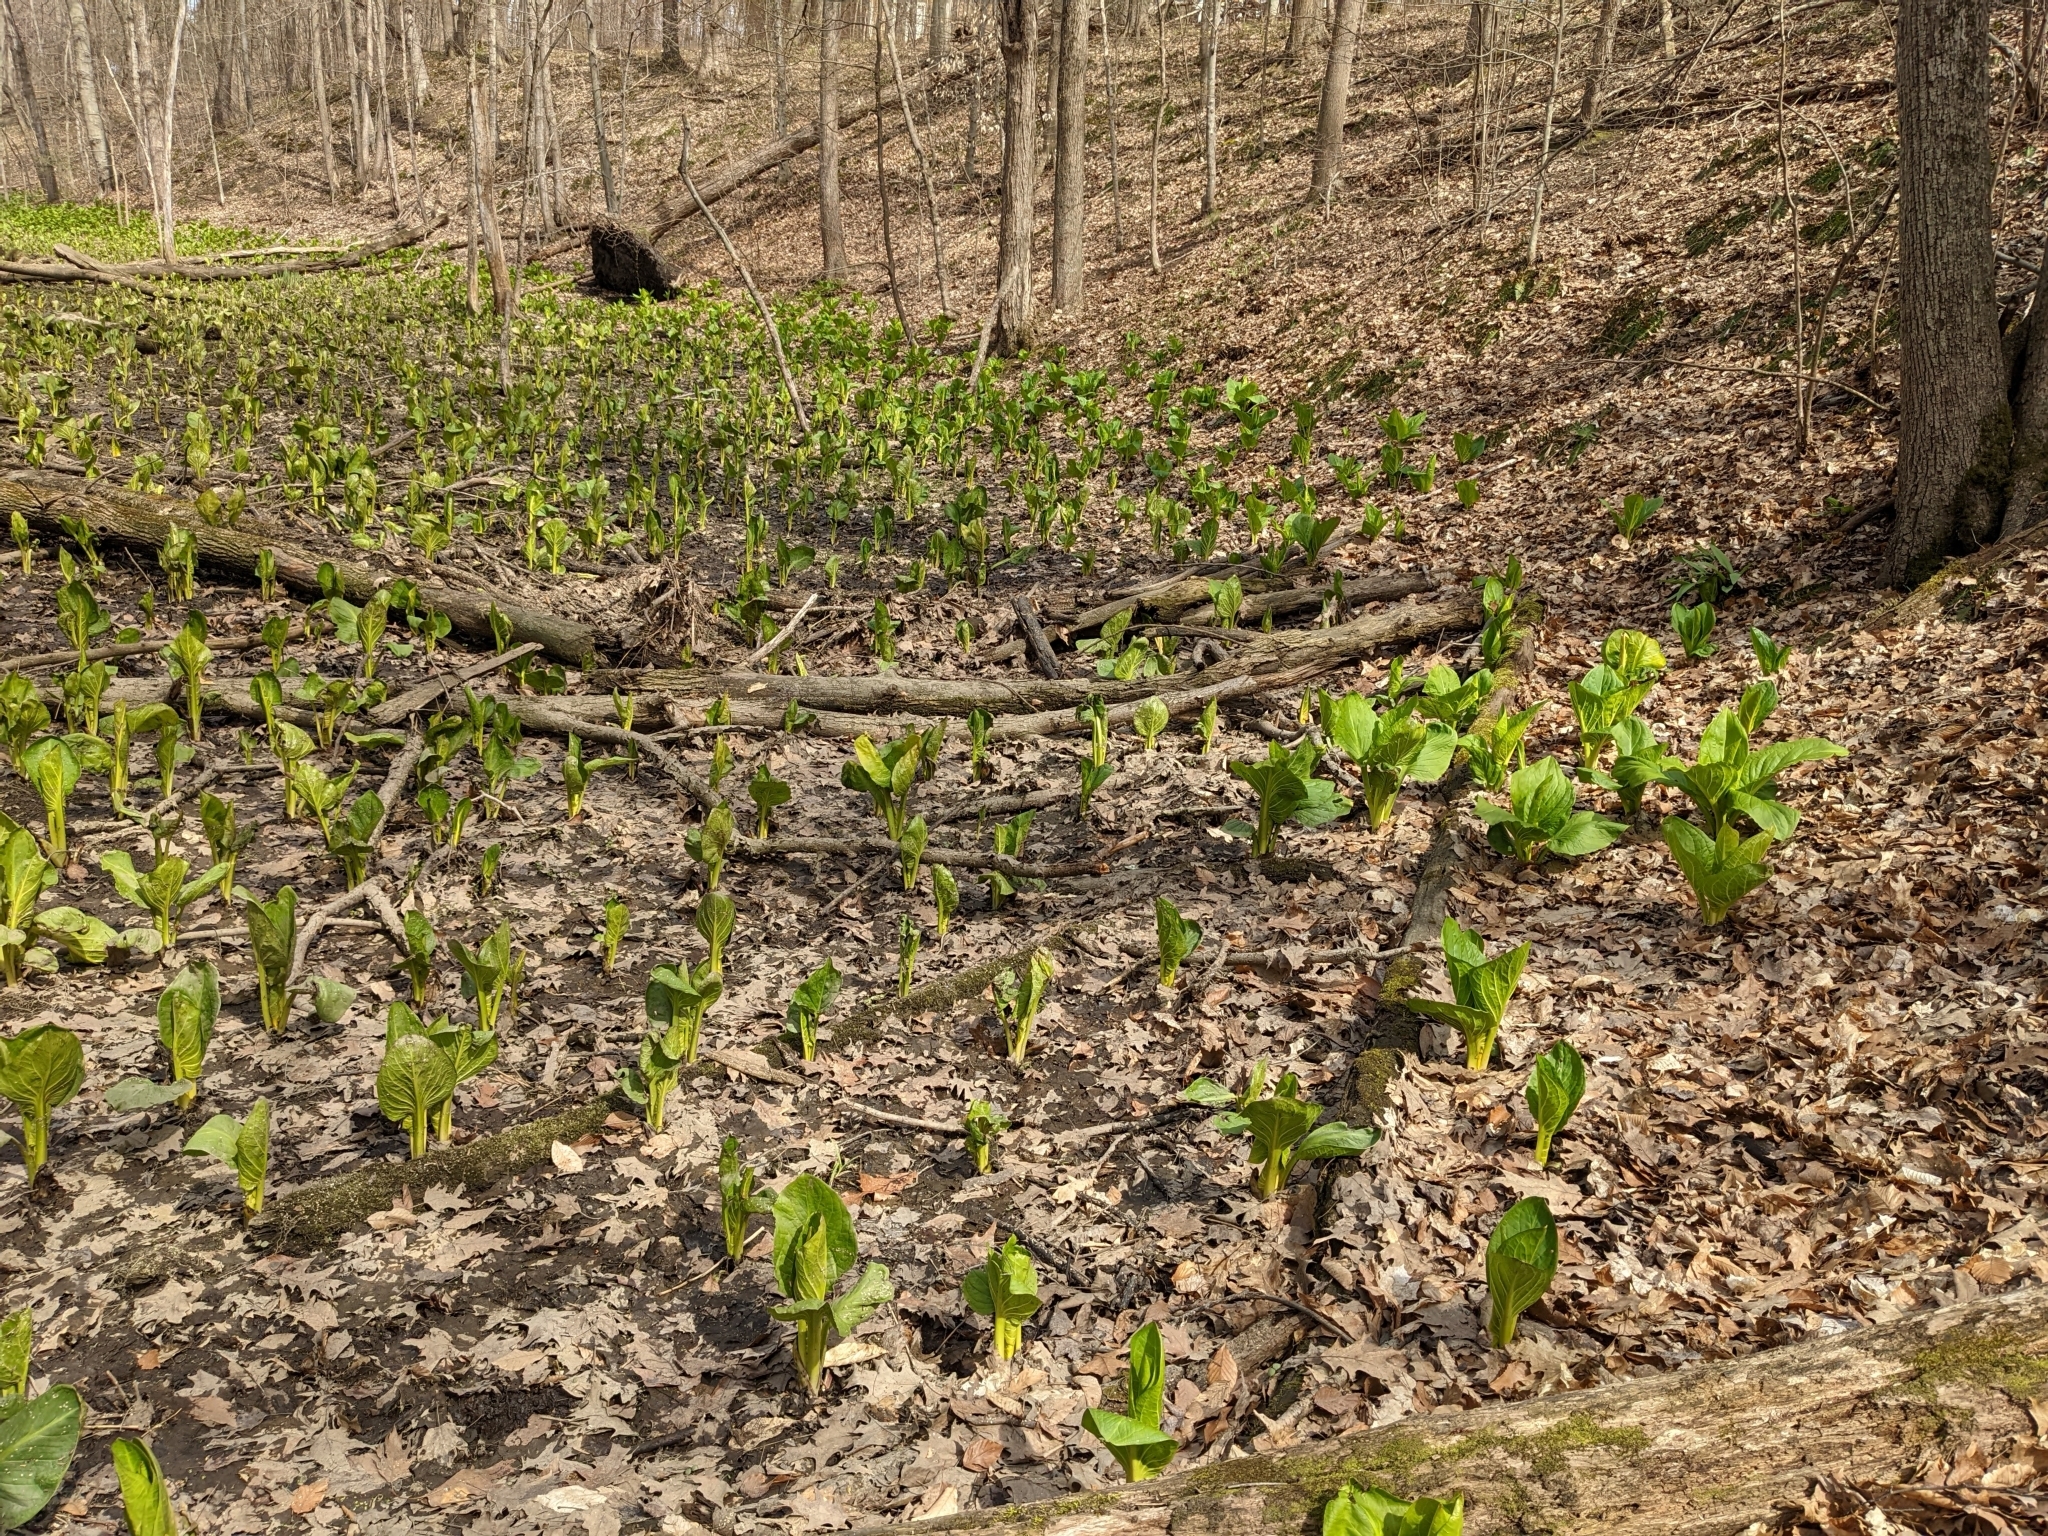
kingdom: Plantae
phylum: Tracheophyta
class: Liliopsida
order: Alismatales
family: Araceae
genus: Symplocarpus
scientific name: Symplocarpus foetidus
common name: Eastern skunk cabbage
